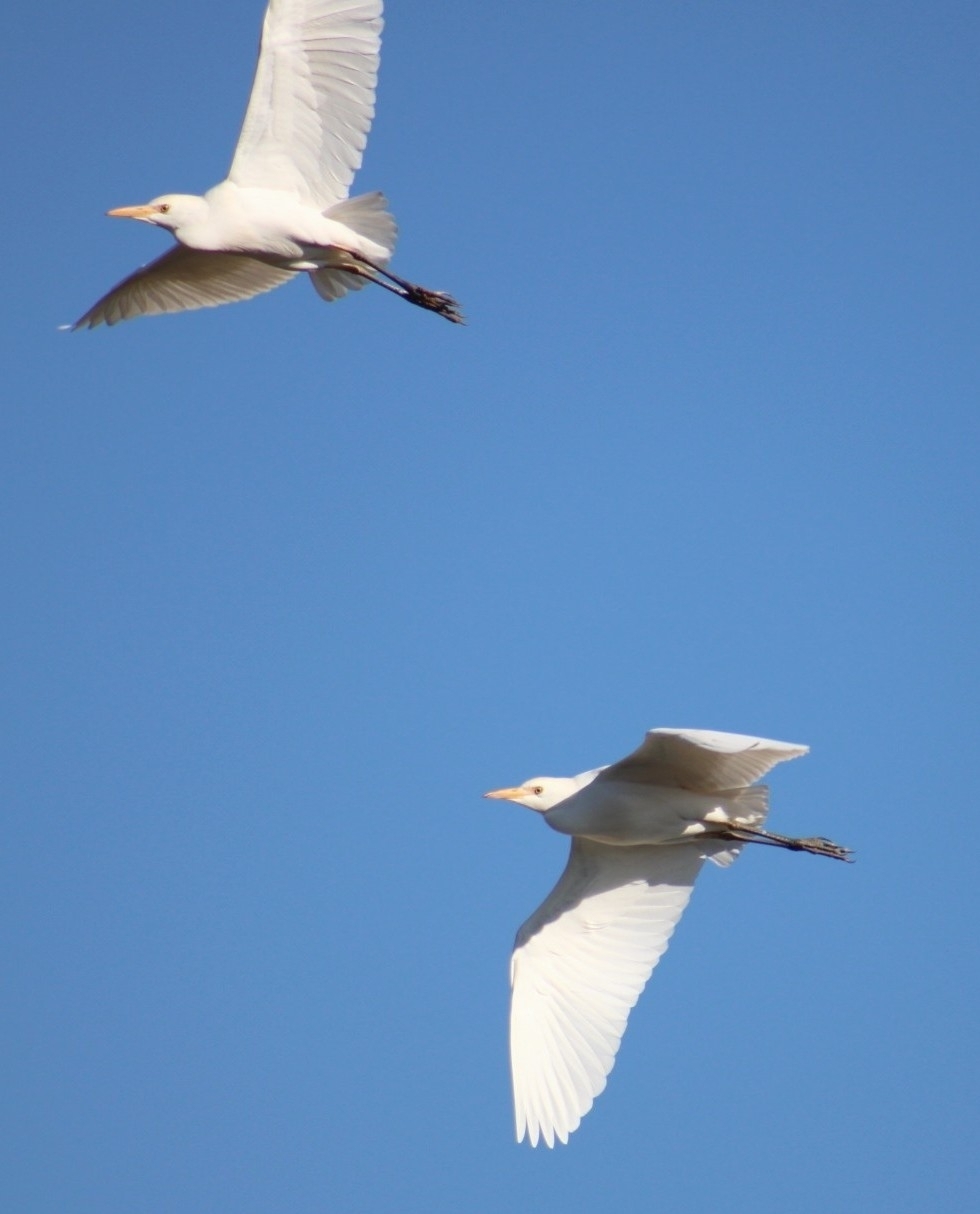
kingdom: Animalia
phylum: Chordata
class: Aves
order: Pelecaniformes
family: Ardeidae
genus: Bubulcus
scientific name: Bubulcus ibis
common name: Cattle egret
